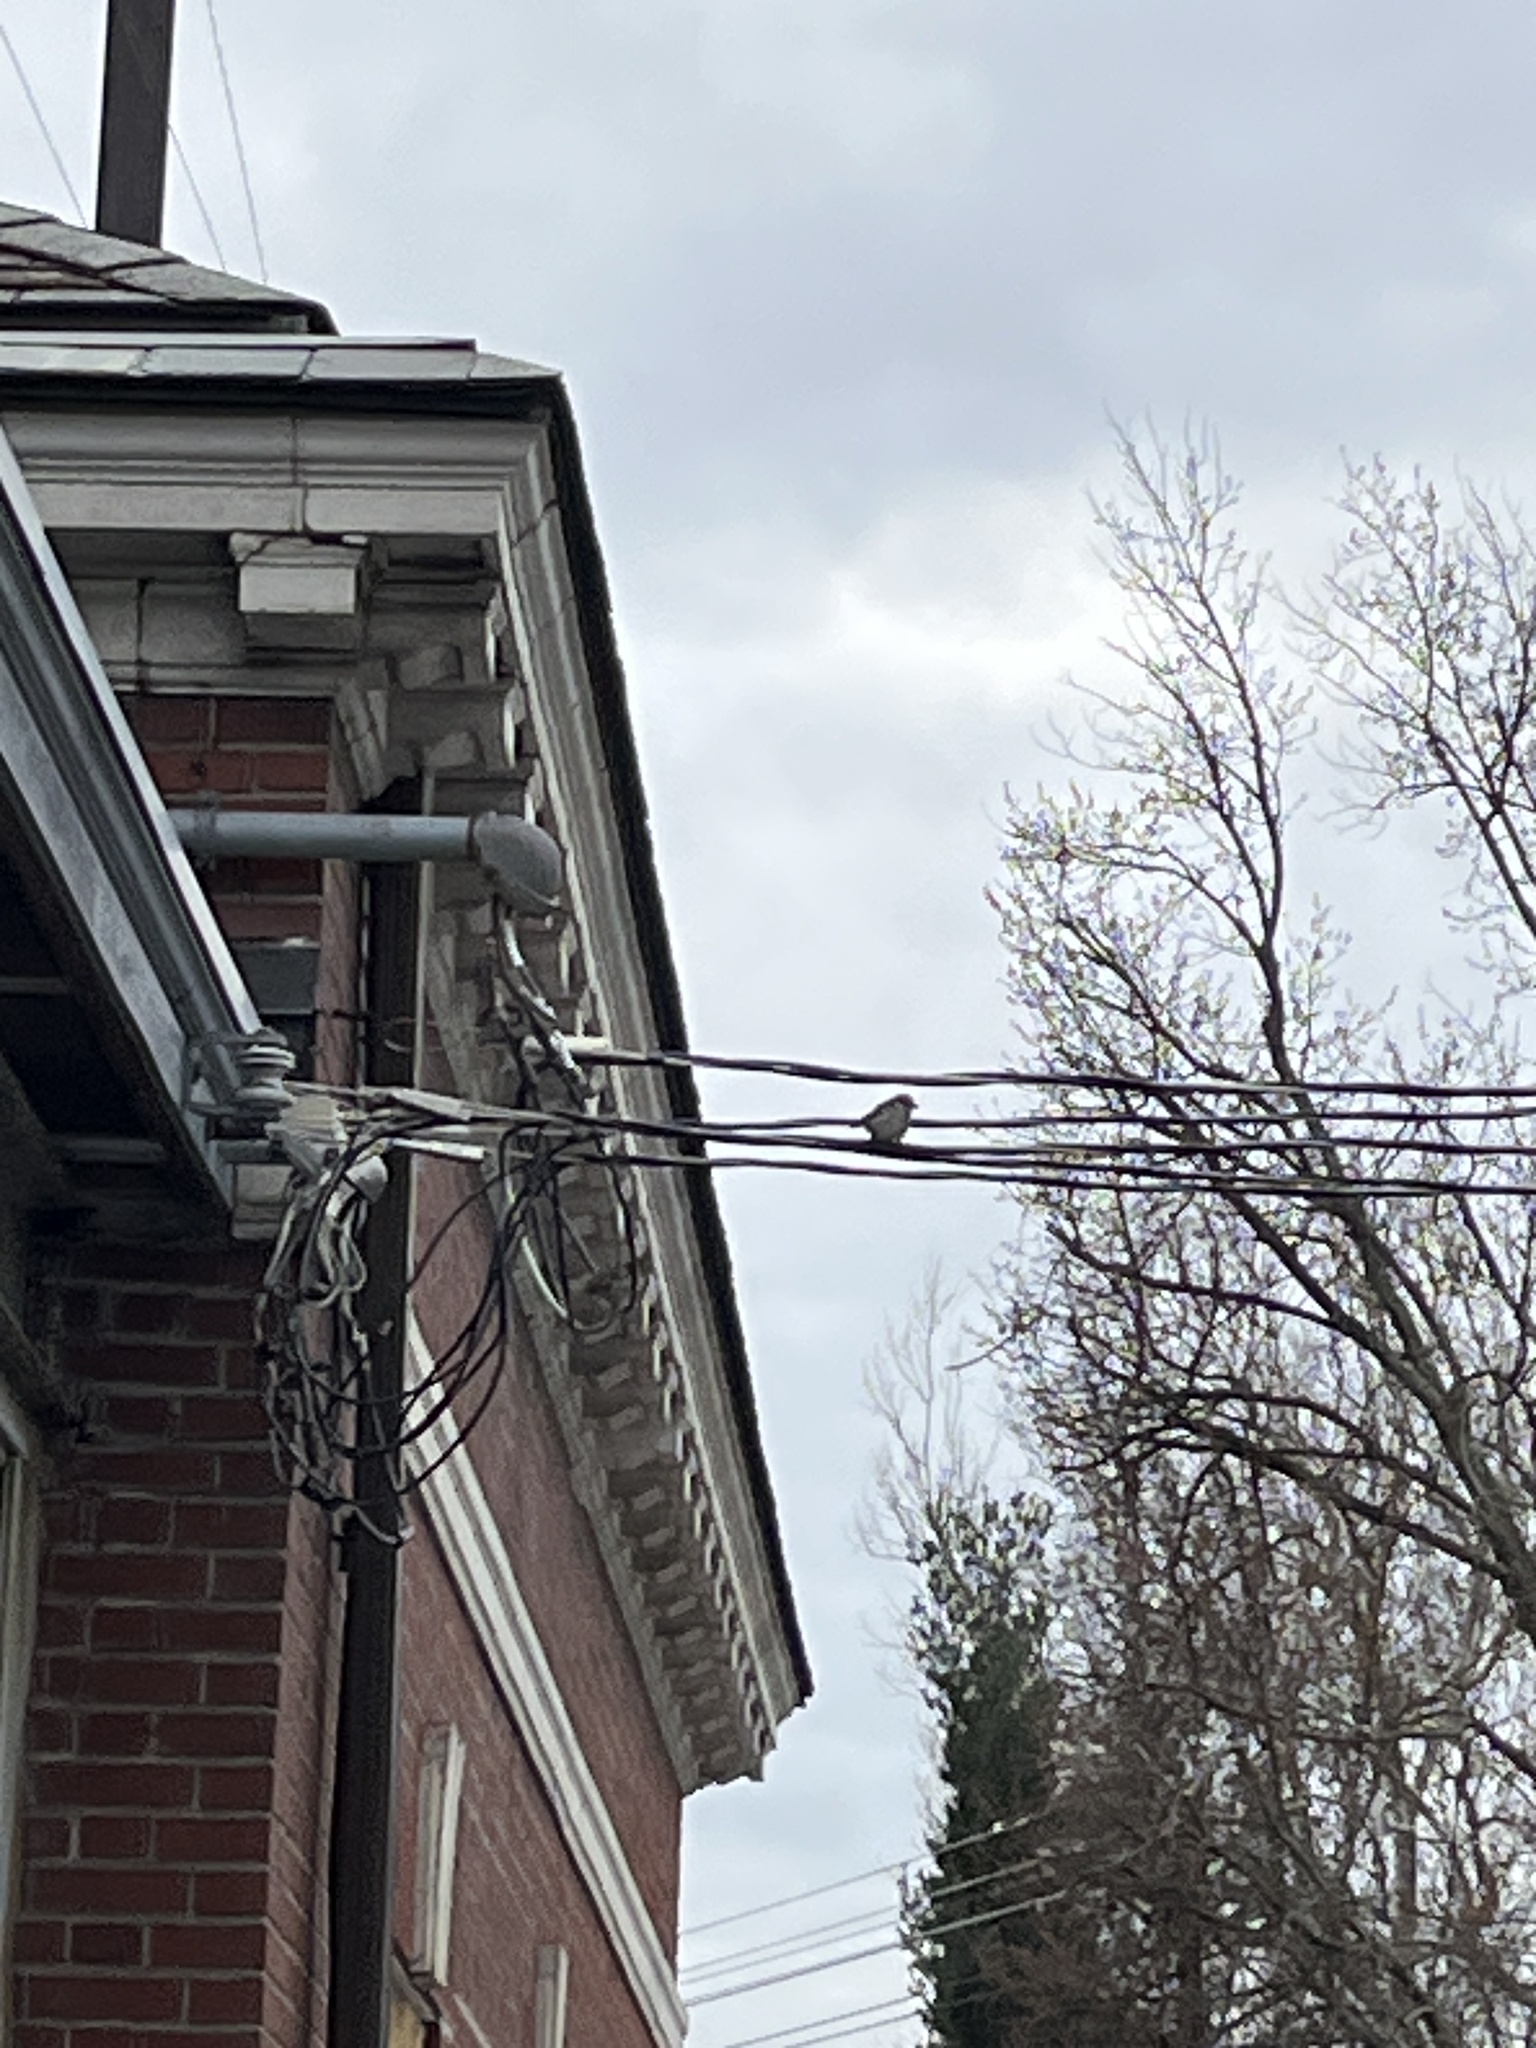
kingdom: Animalia
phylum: Chordata
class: Aves
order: Passeriformes
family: Passeridae
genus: Passer
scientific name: Passer domesticus
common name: House sparrow
